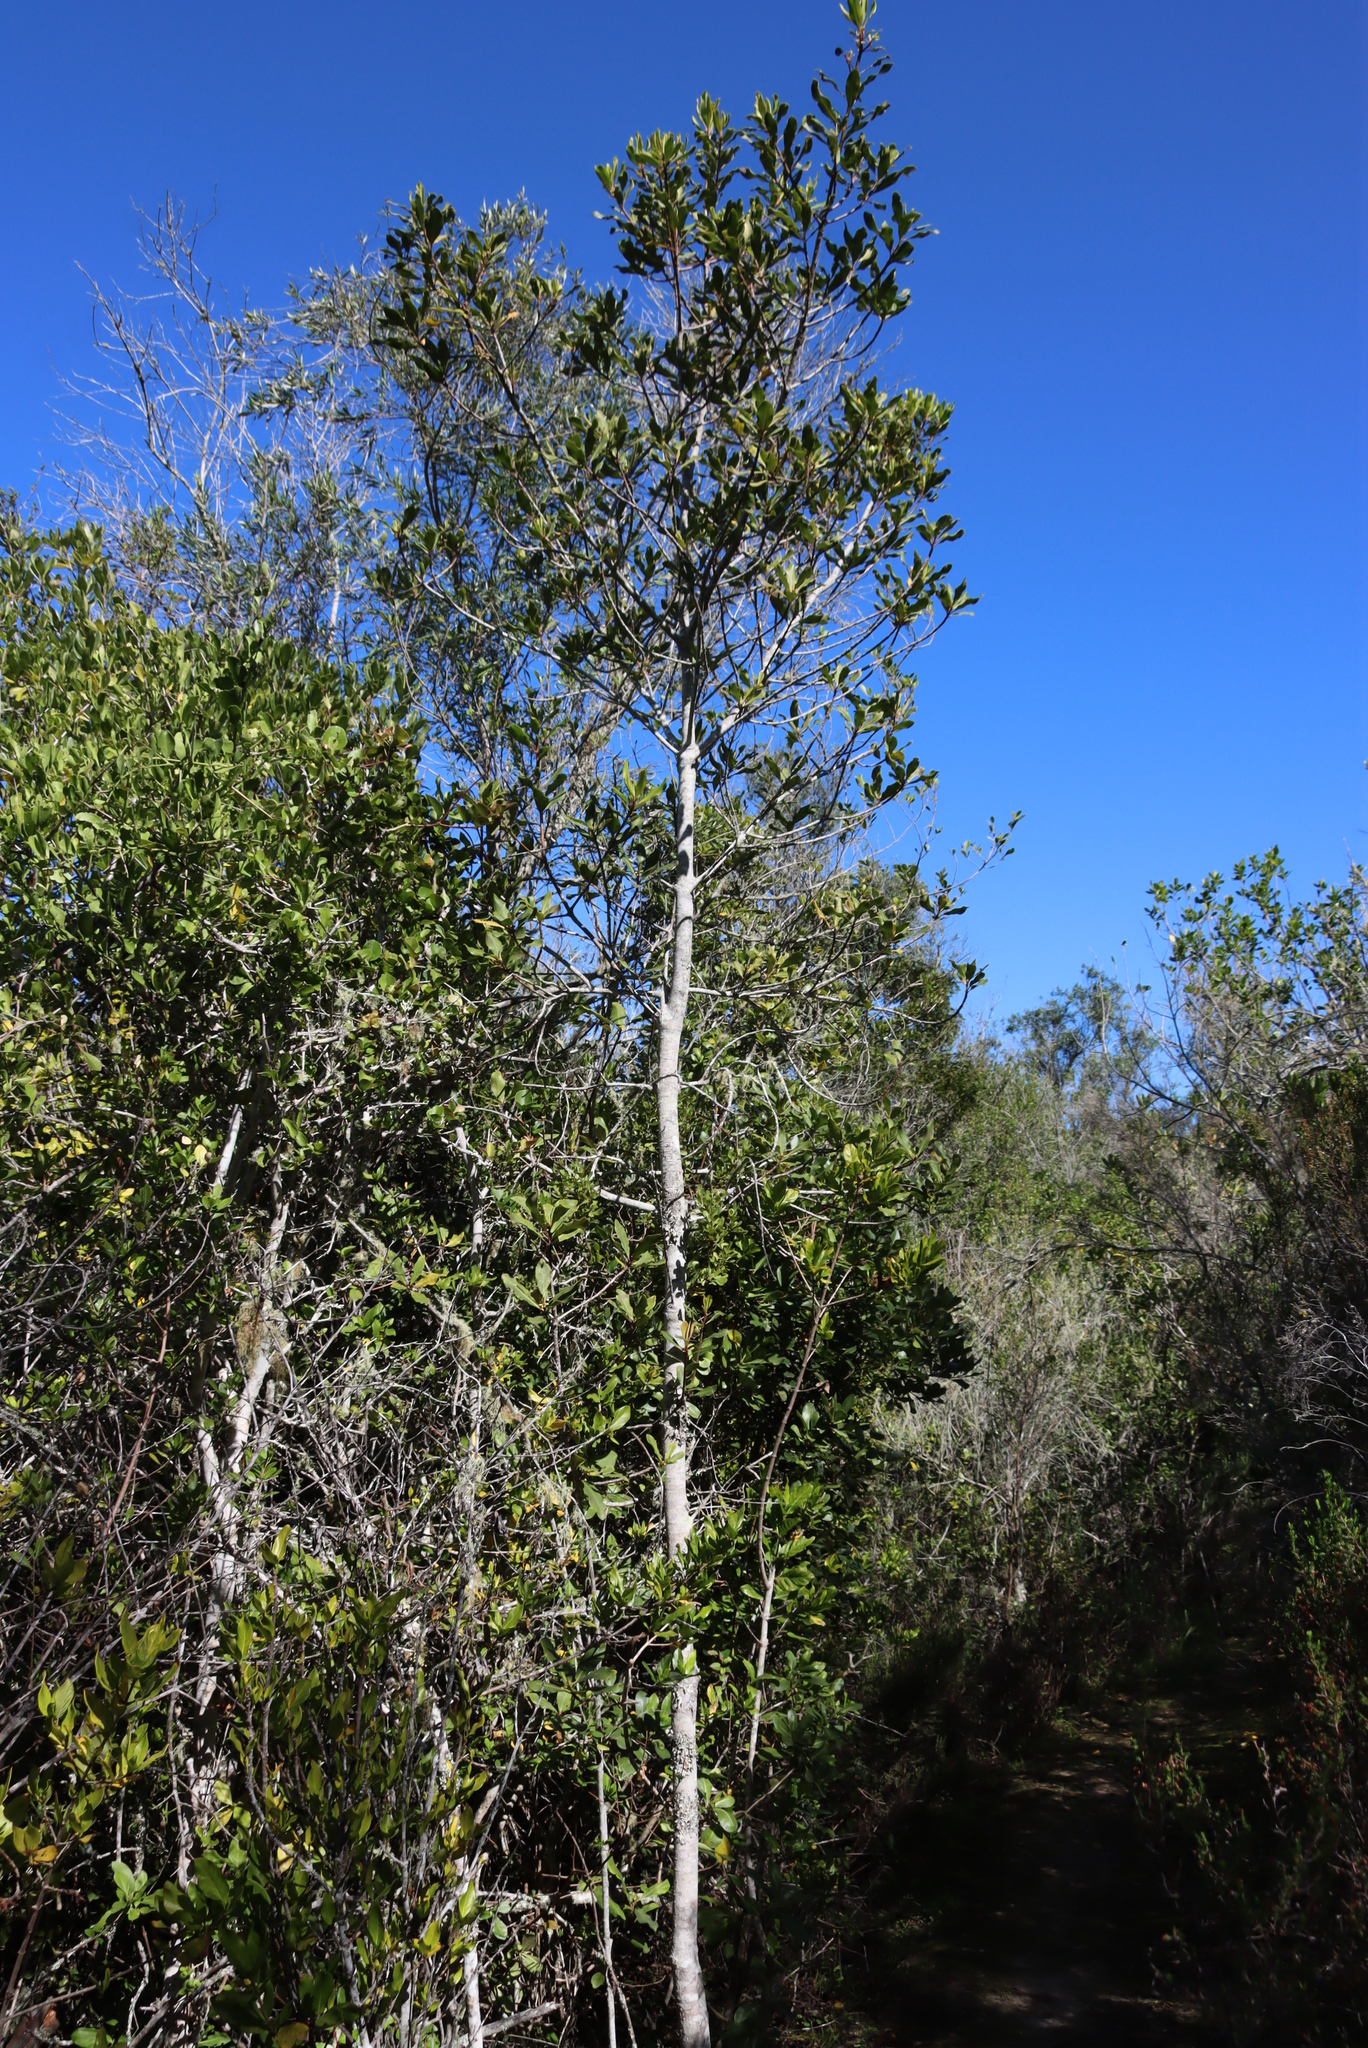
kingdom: Plantae
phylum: Tracheophyta
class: Magnoliopsida
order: Ericales
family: Primulaceae
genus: Myrsine
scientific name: Myrsine melanophloeos
